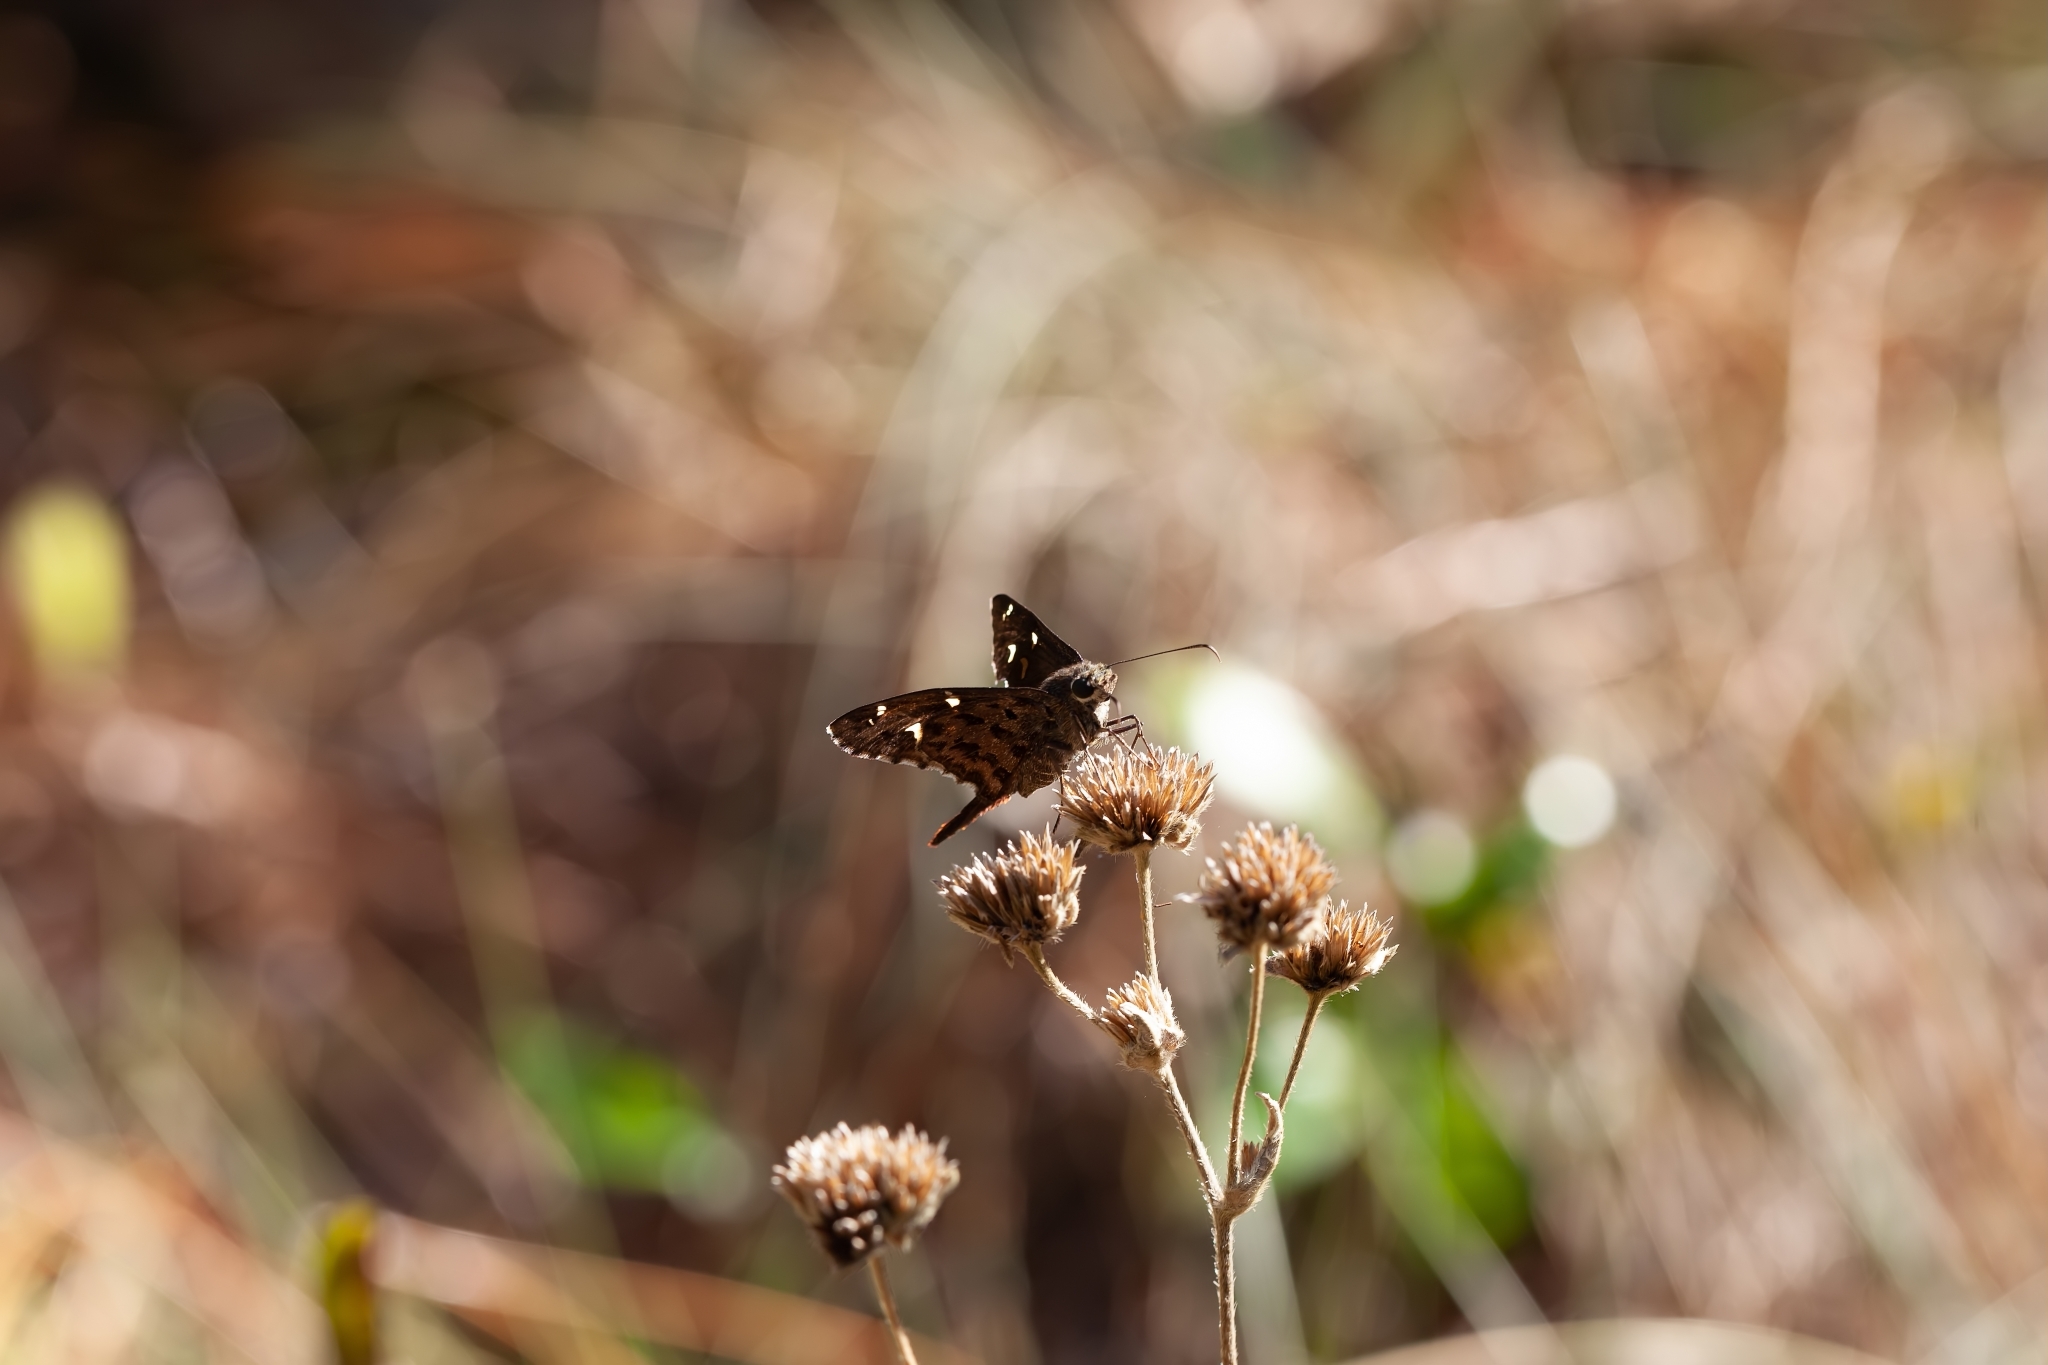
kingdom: Animalia
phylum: Arthropoda
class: Insecta
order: Lepidoptera
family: Hesperiidae
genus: Thorybes
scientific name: Thorybes
